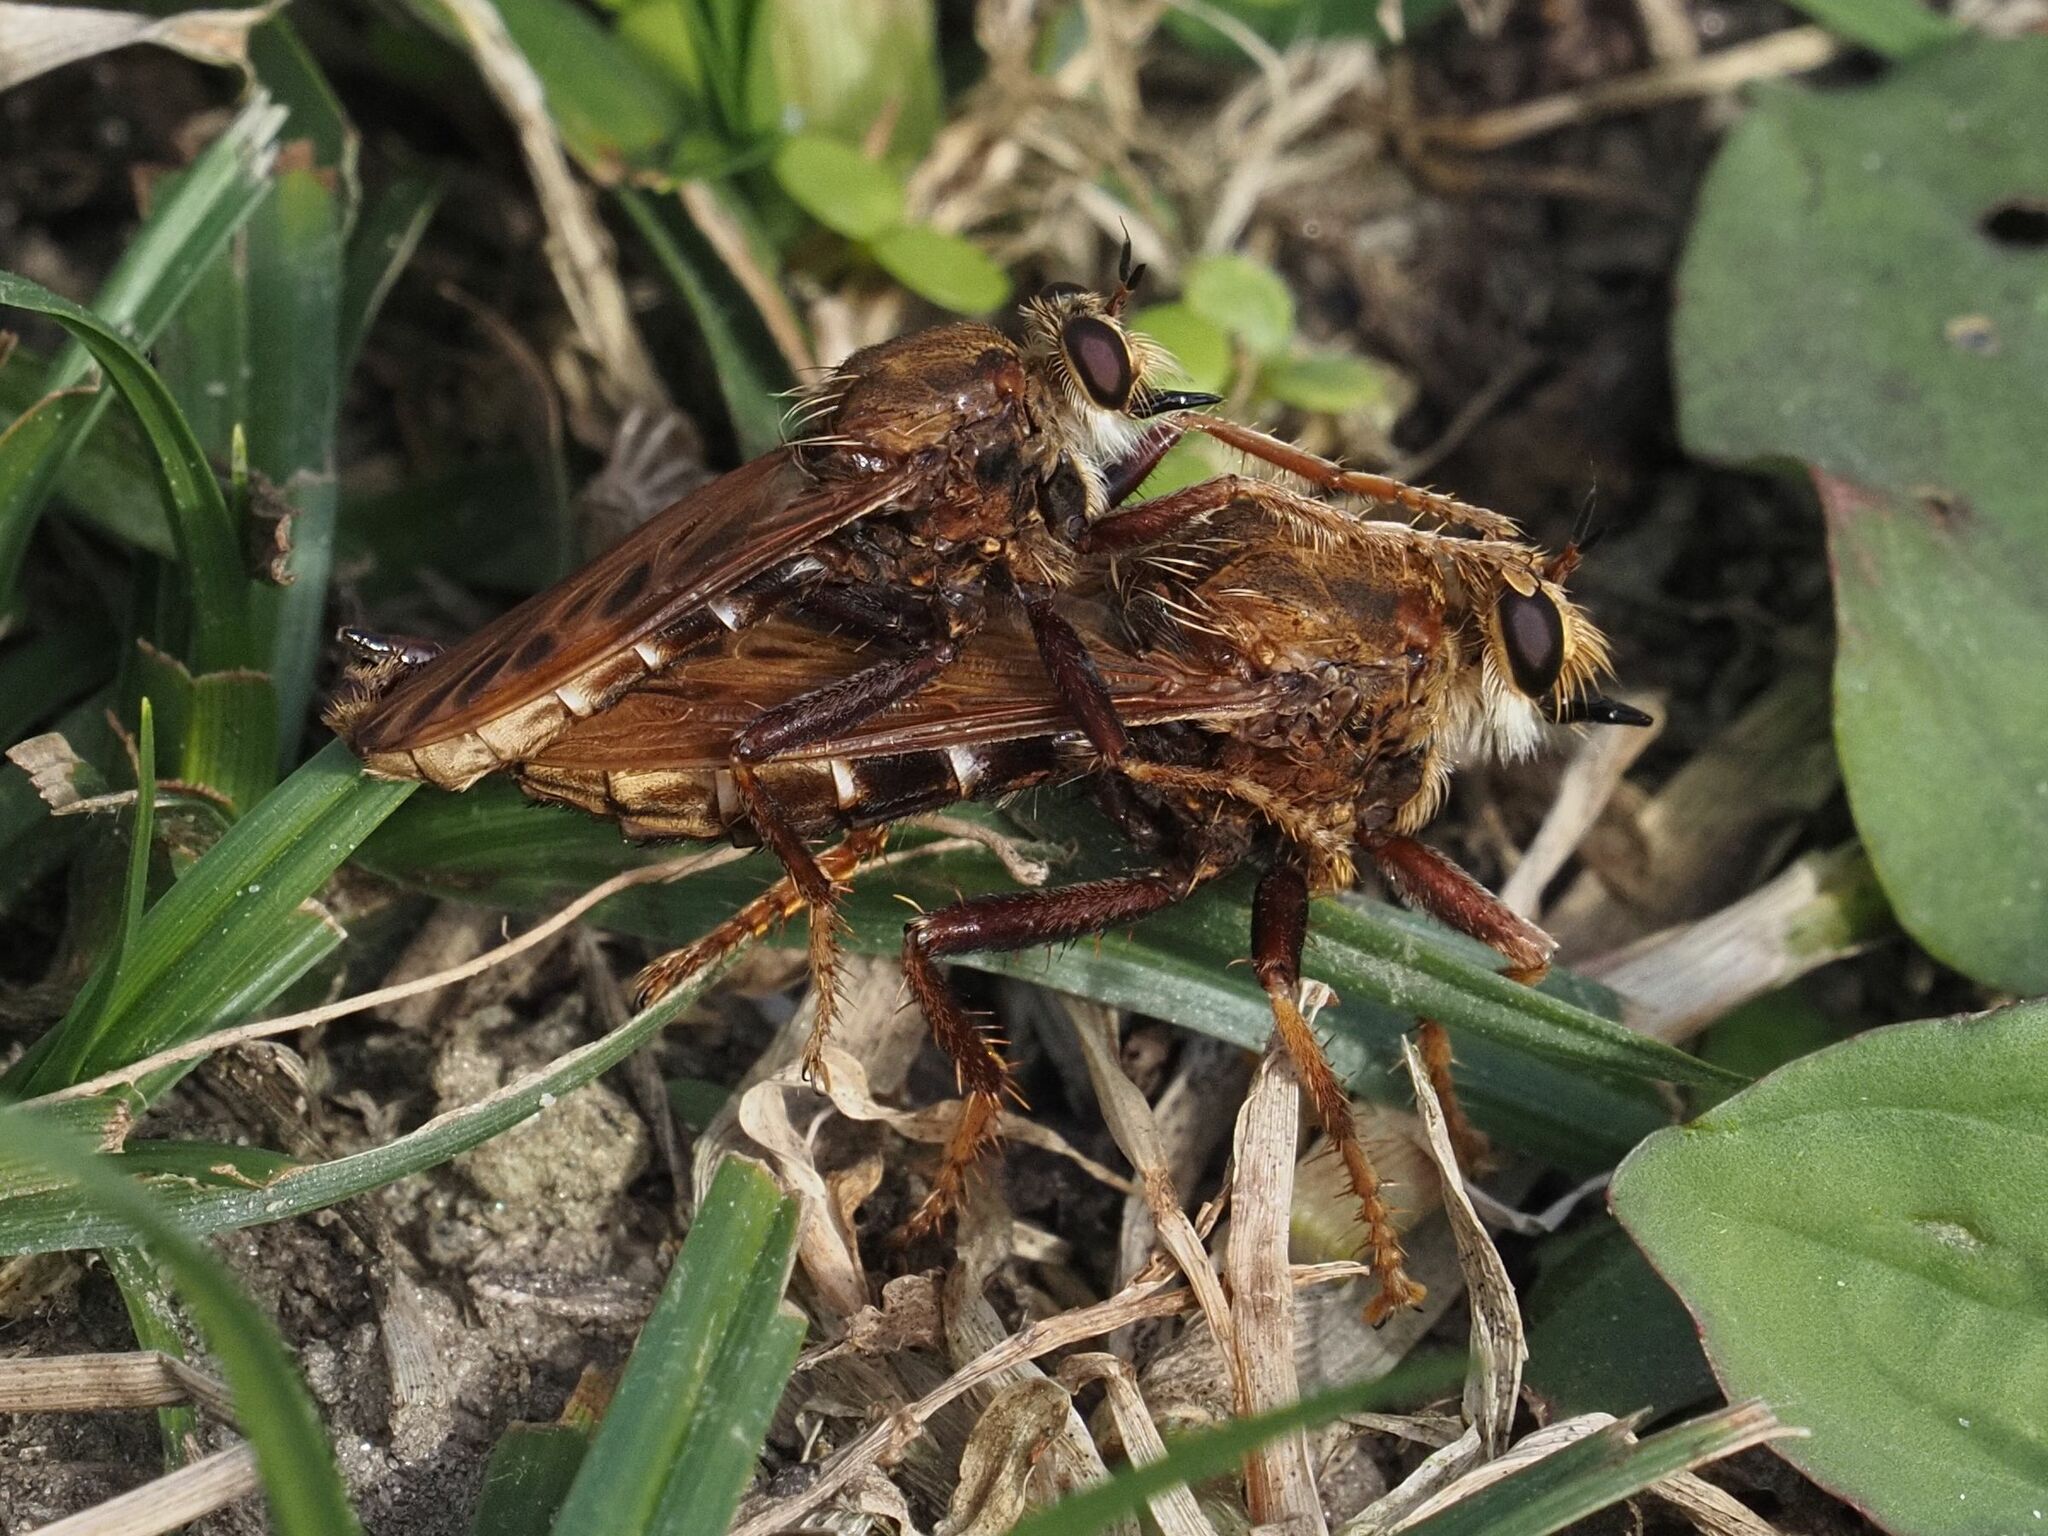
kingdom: Animalia
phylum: Arthropoda
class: Insecta
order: Diptera
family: Asilidae
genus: Asilus
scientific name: Asilus crabroniformis
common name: Hornet robberfly
